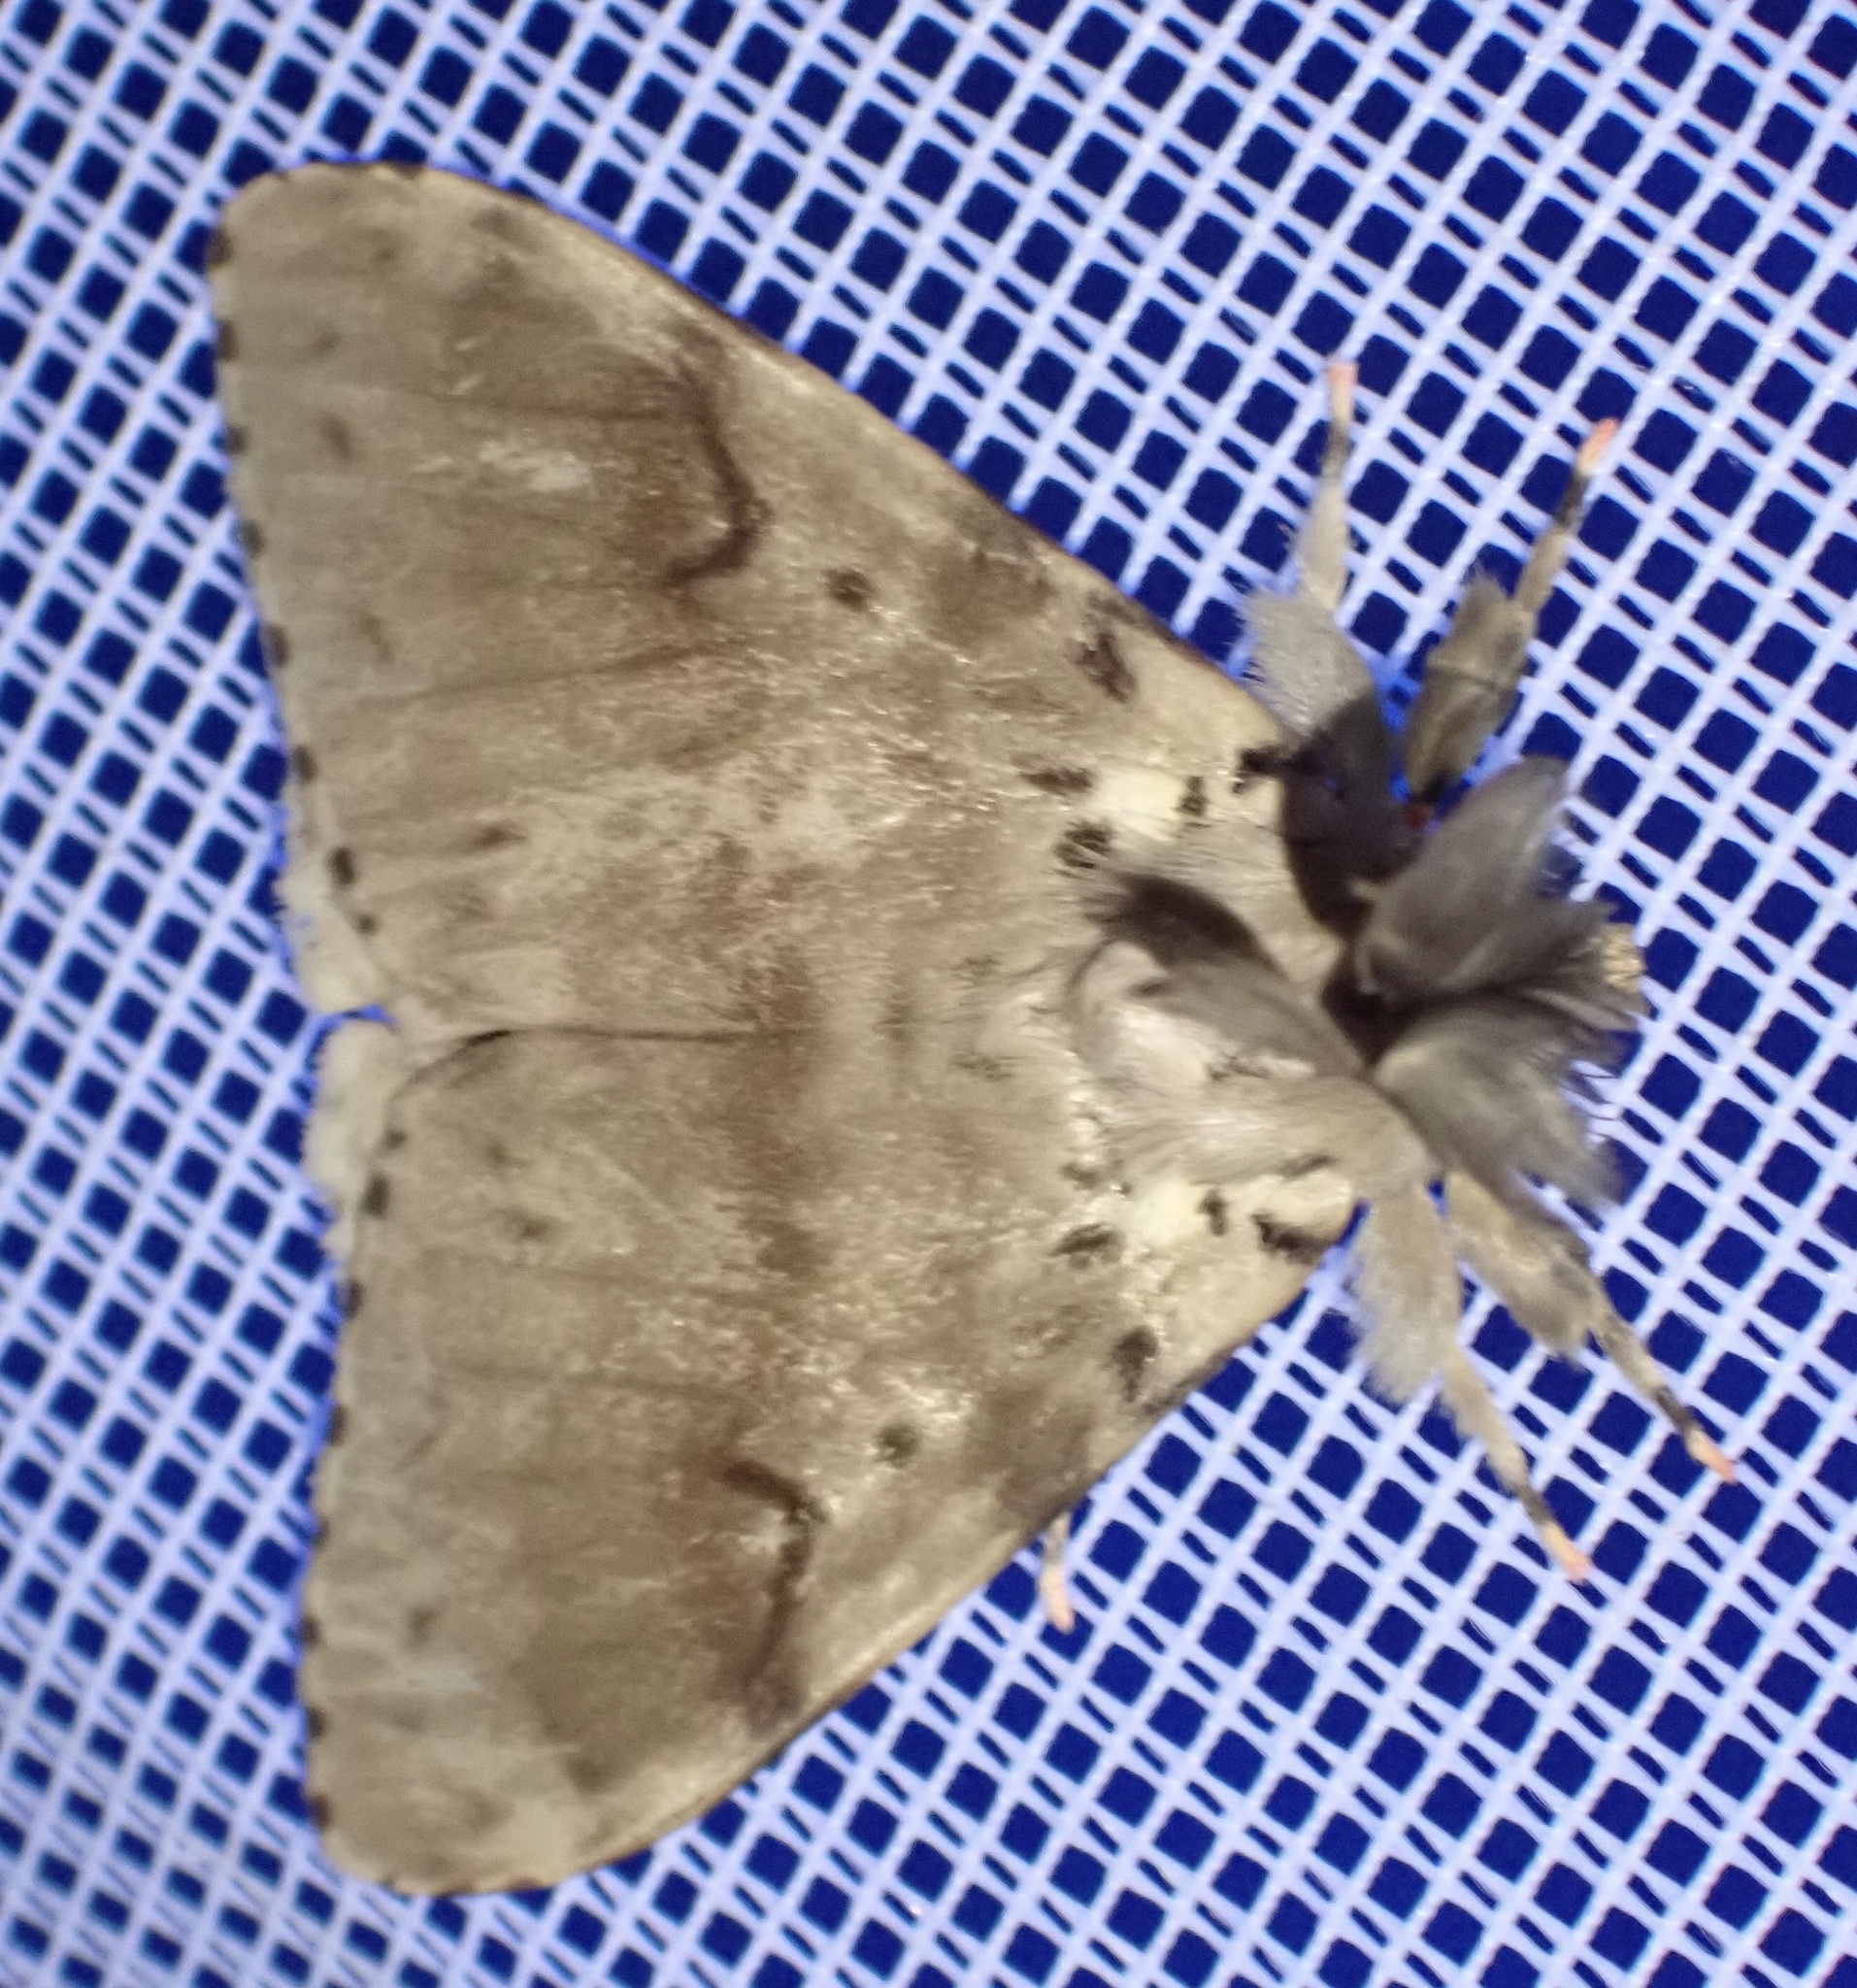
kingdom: Animalia
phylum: Arthropoda
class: Insecta
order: Lepidoptera
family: Erebidae
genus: Lymantria
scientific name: Lymantria lunata
